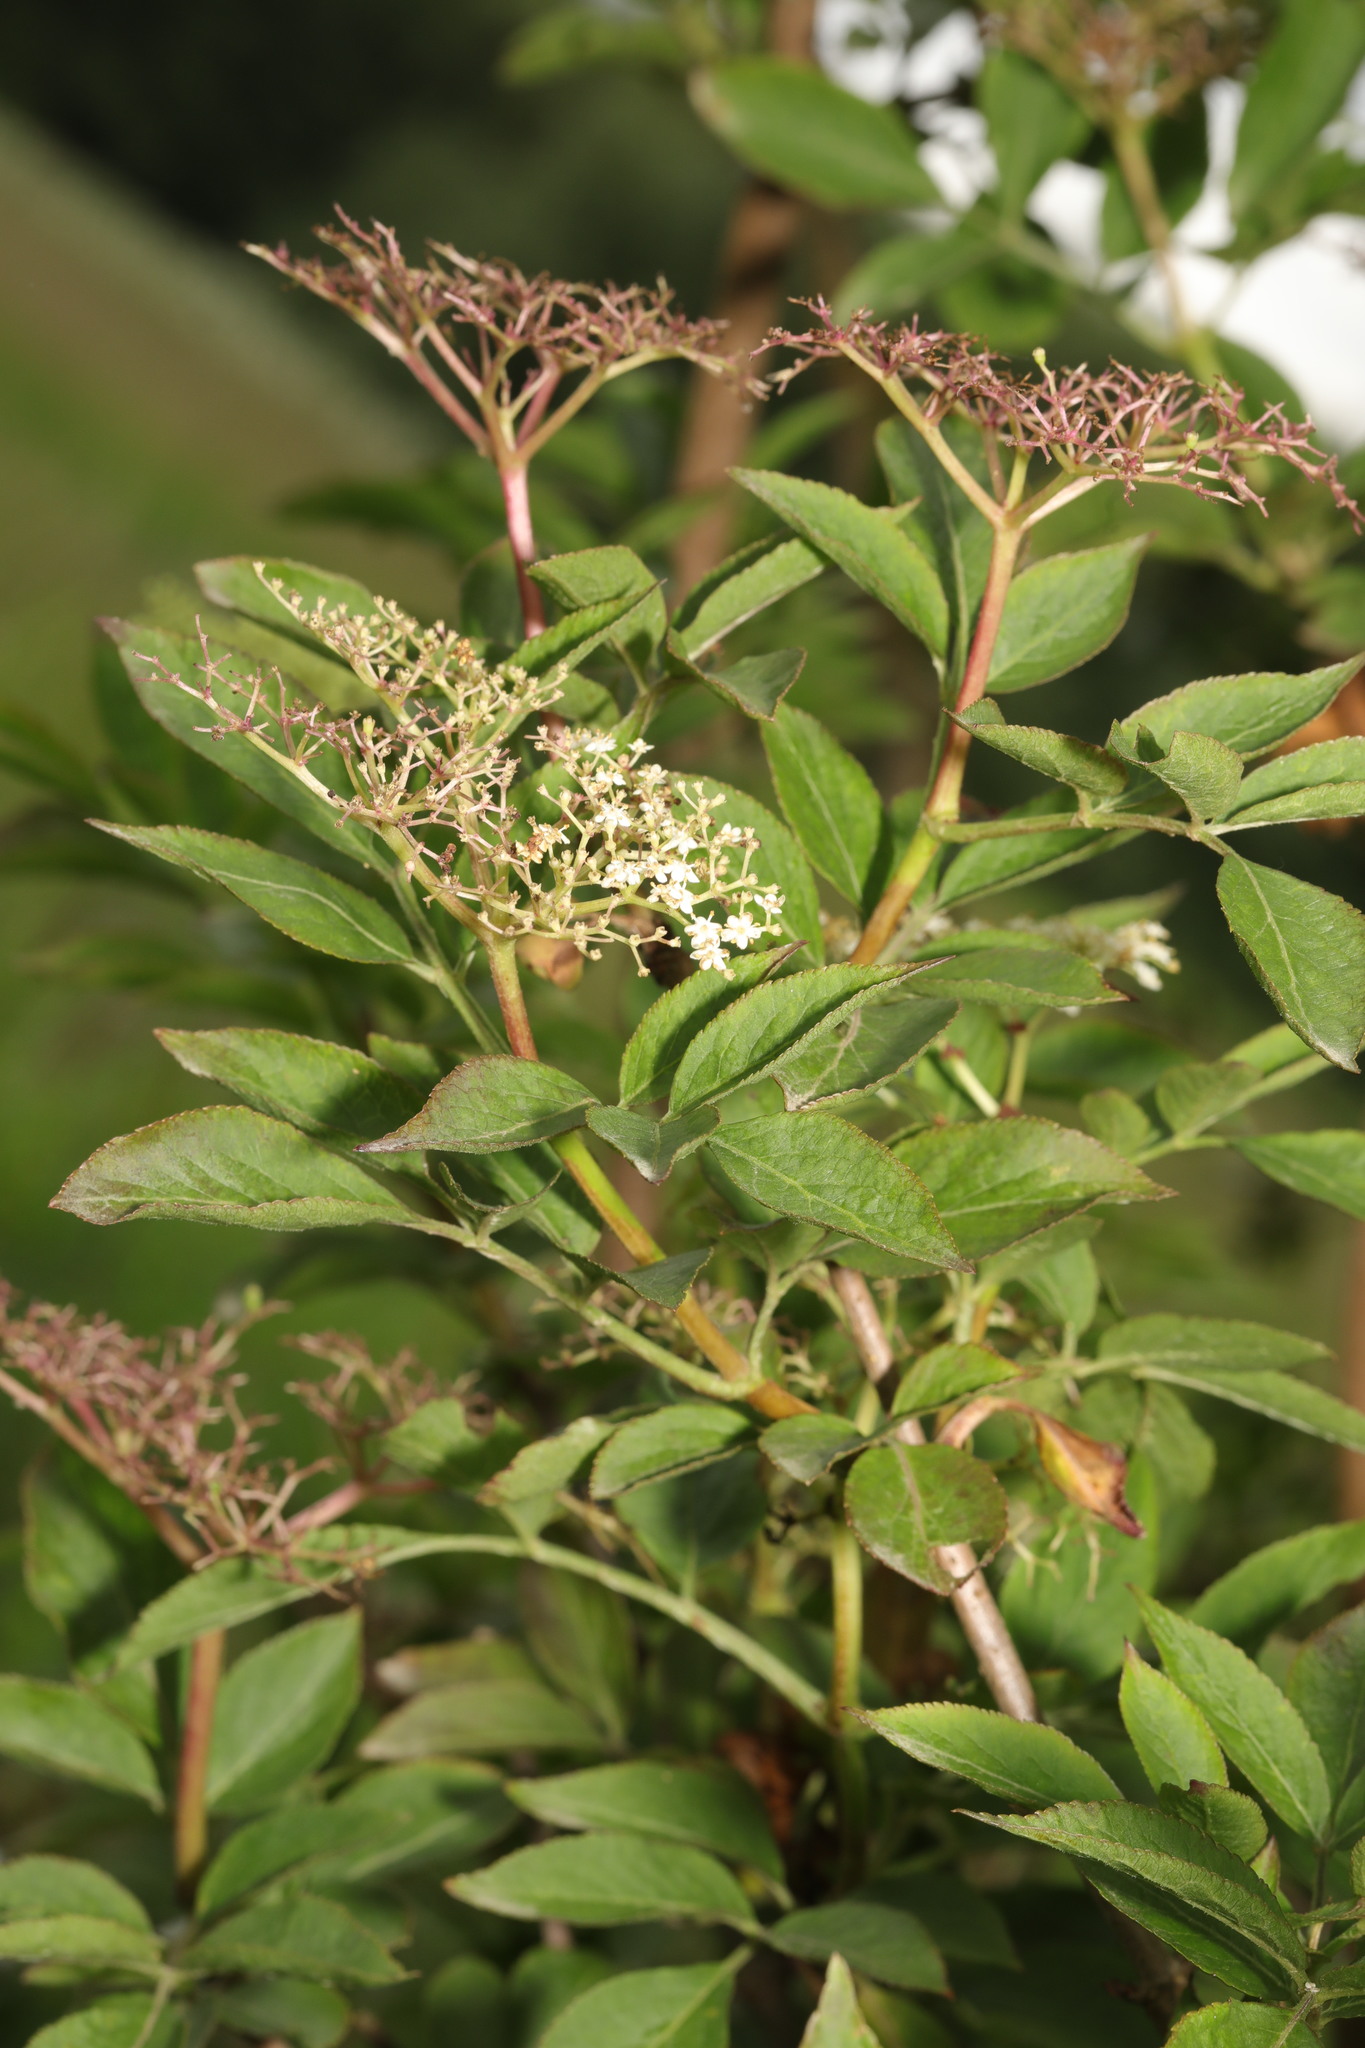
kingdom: Plantae
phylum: Tracheophyta
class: Magnoliopsida
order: Dipsacales
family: Viburnaceae
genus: Sambucus
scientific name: Sambucus nigra
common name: Elder
